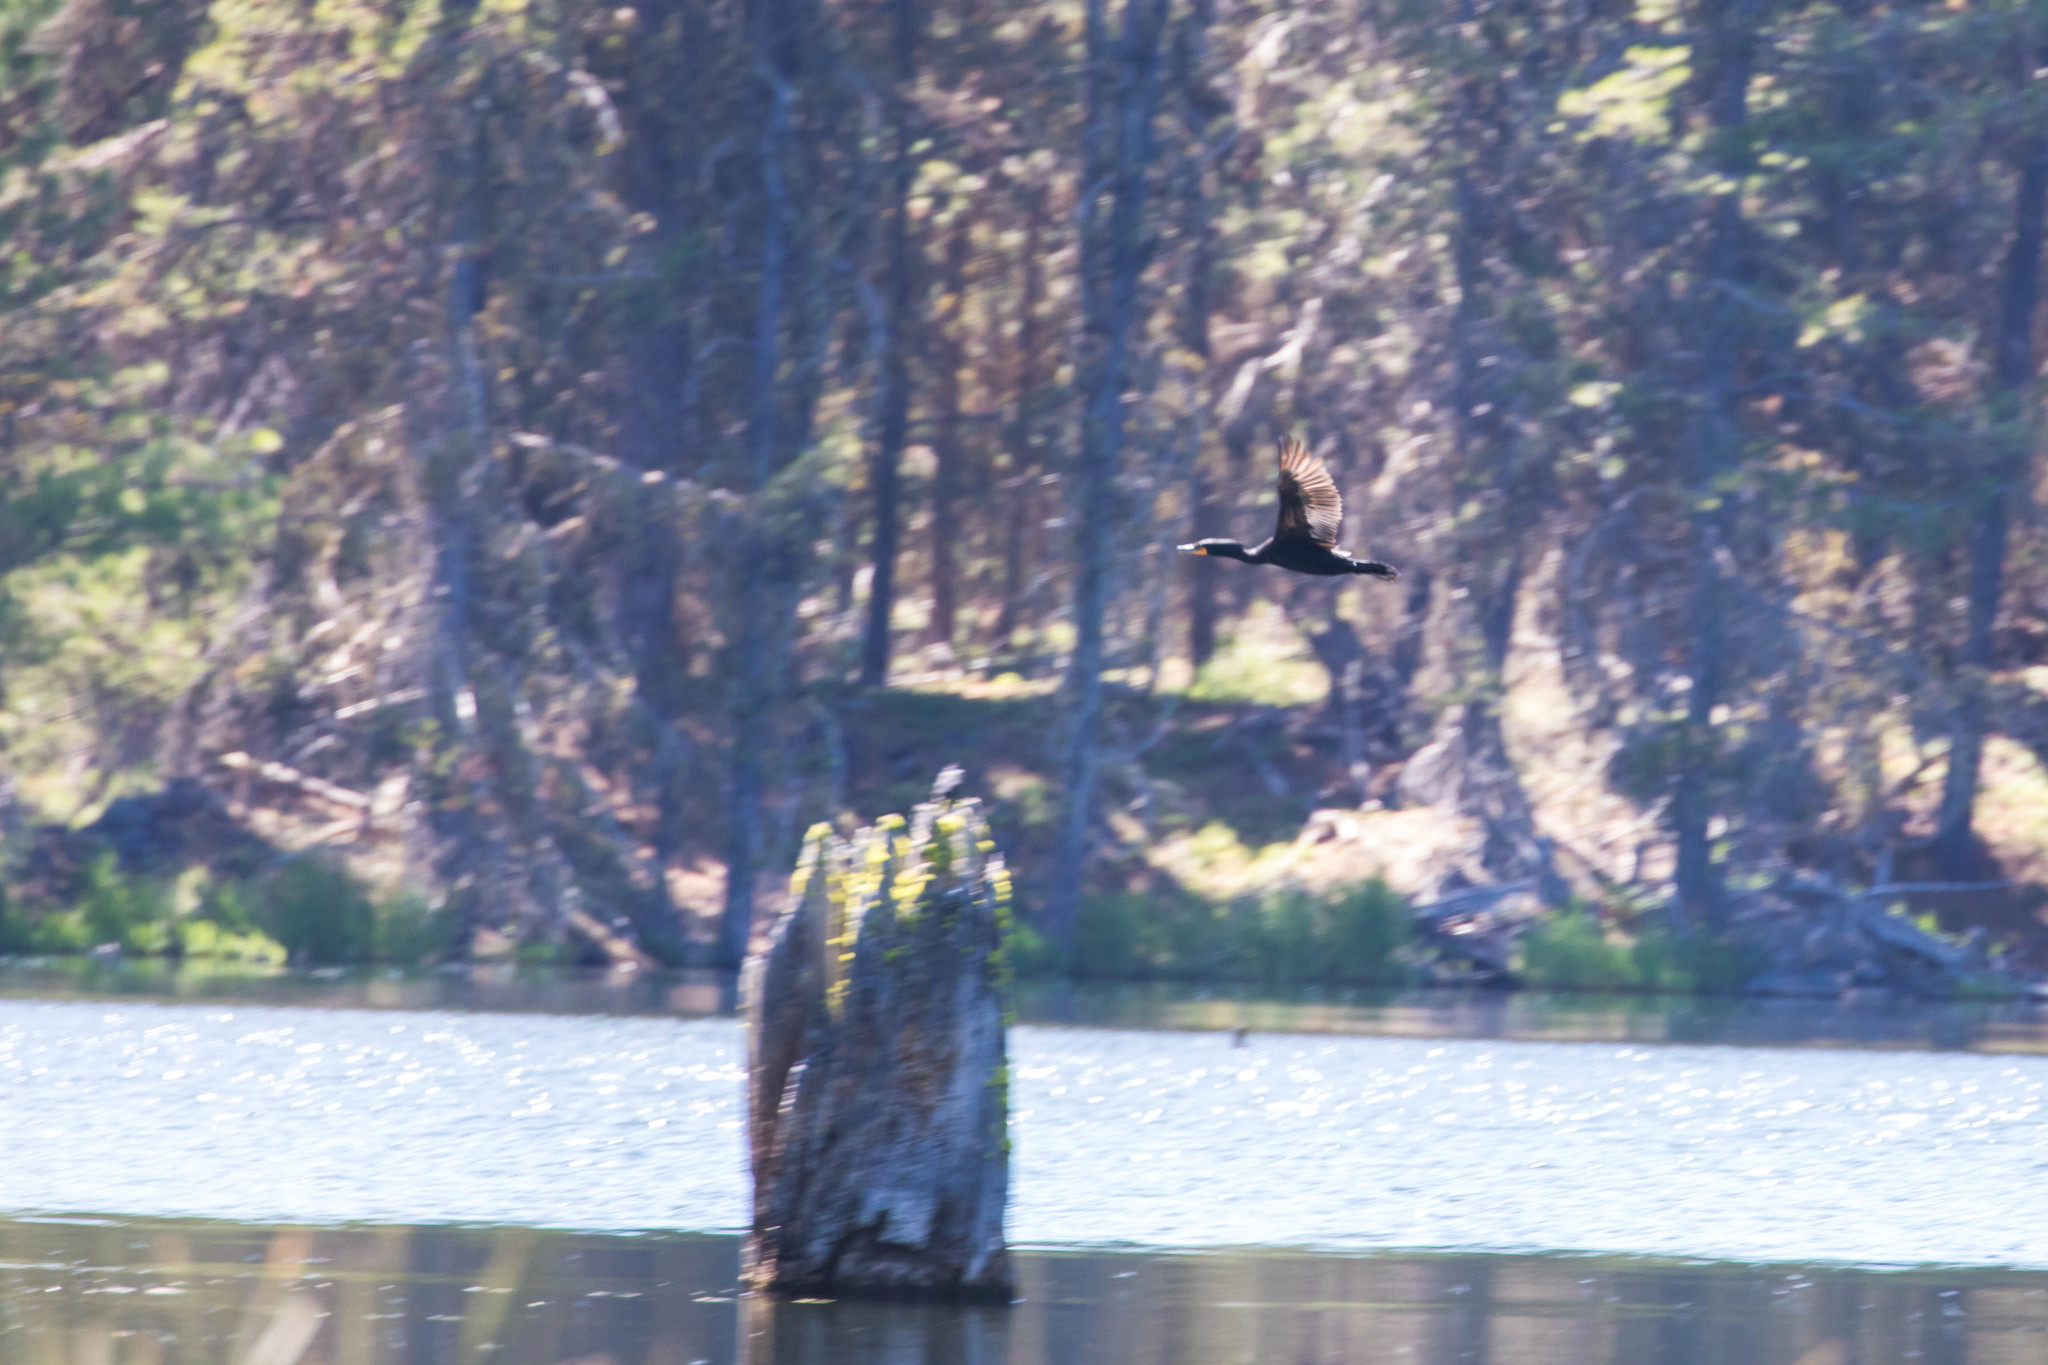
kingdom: Animalia
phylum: Chordata
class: Aves
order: Suliformes
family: Phalacrocoracidae
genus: Phalacrocorax
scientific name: Phalacrocorax auritus
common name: Double-crested cormorant
